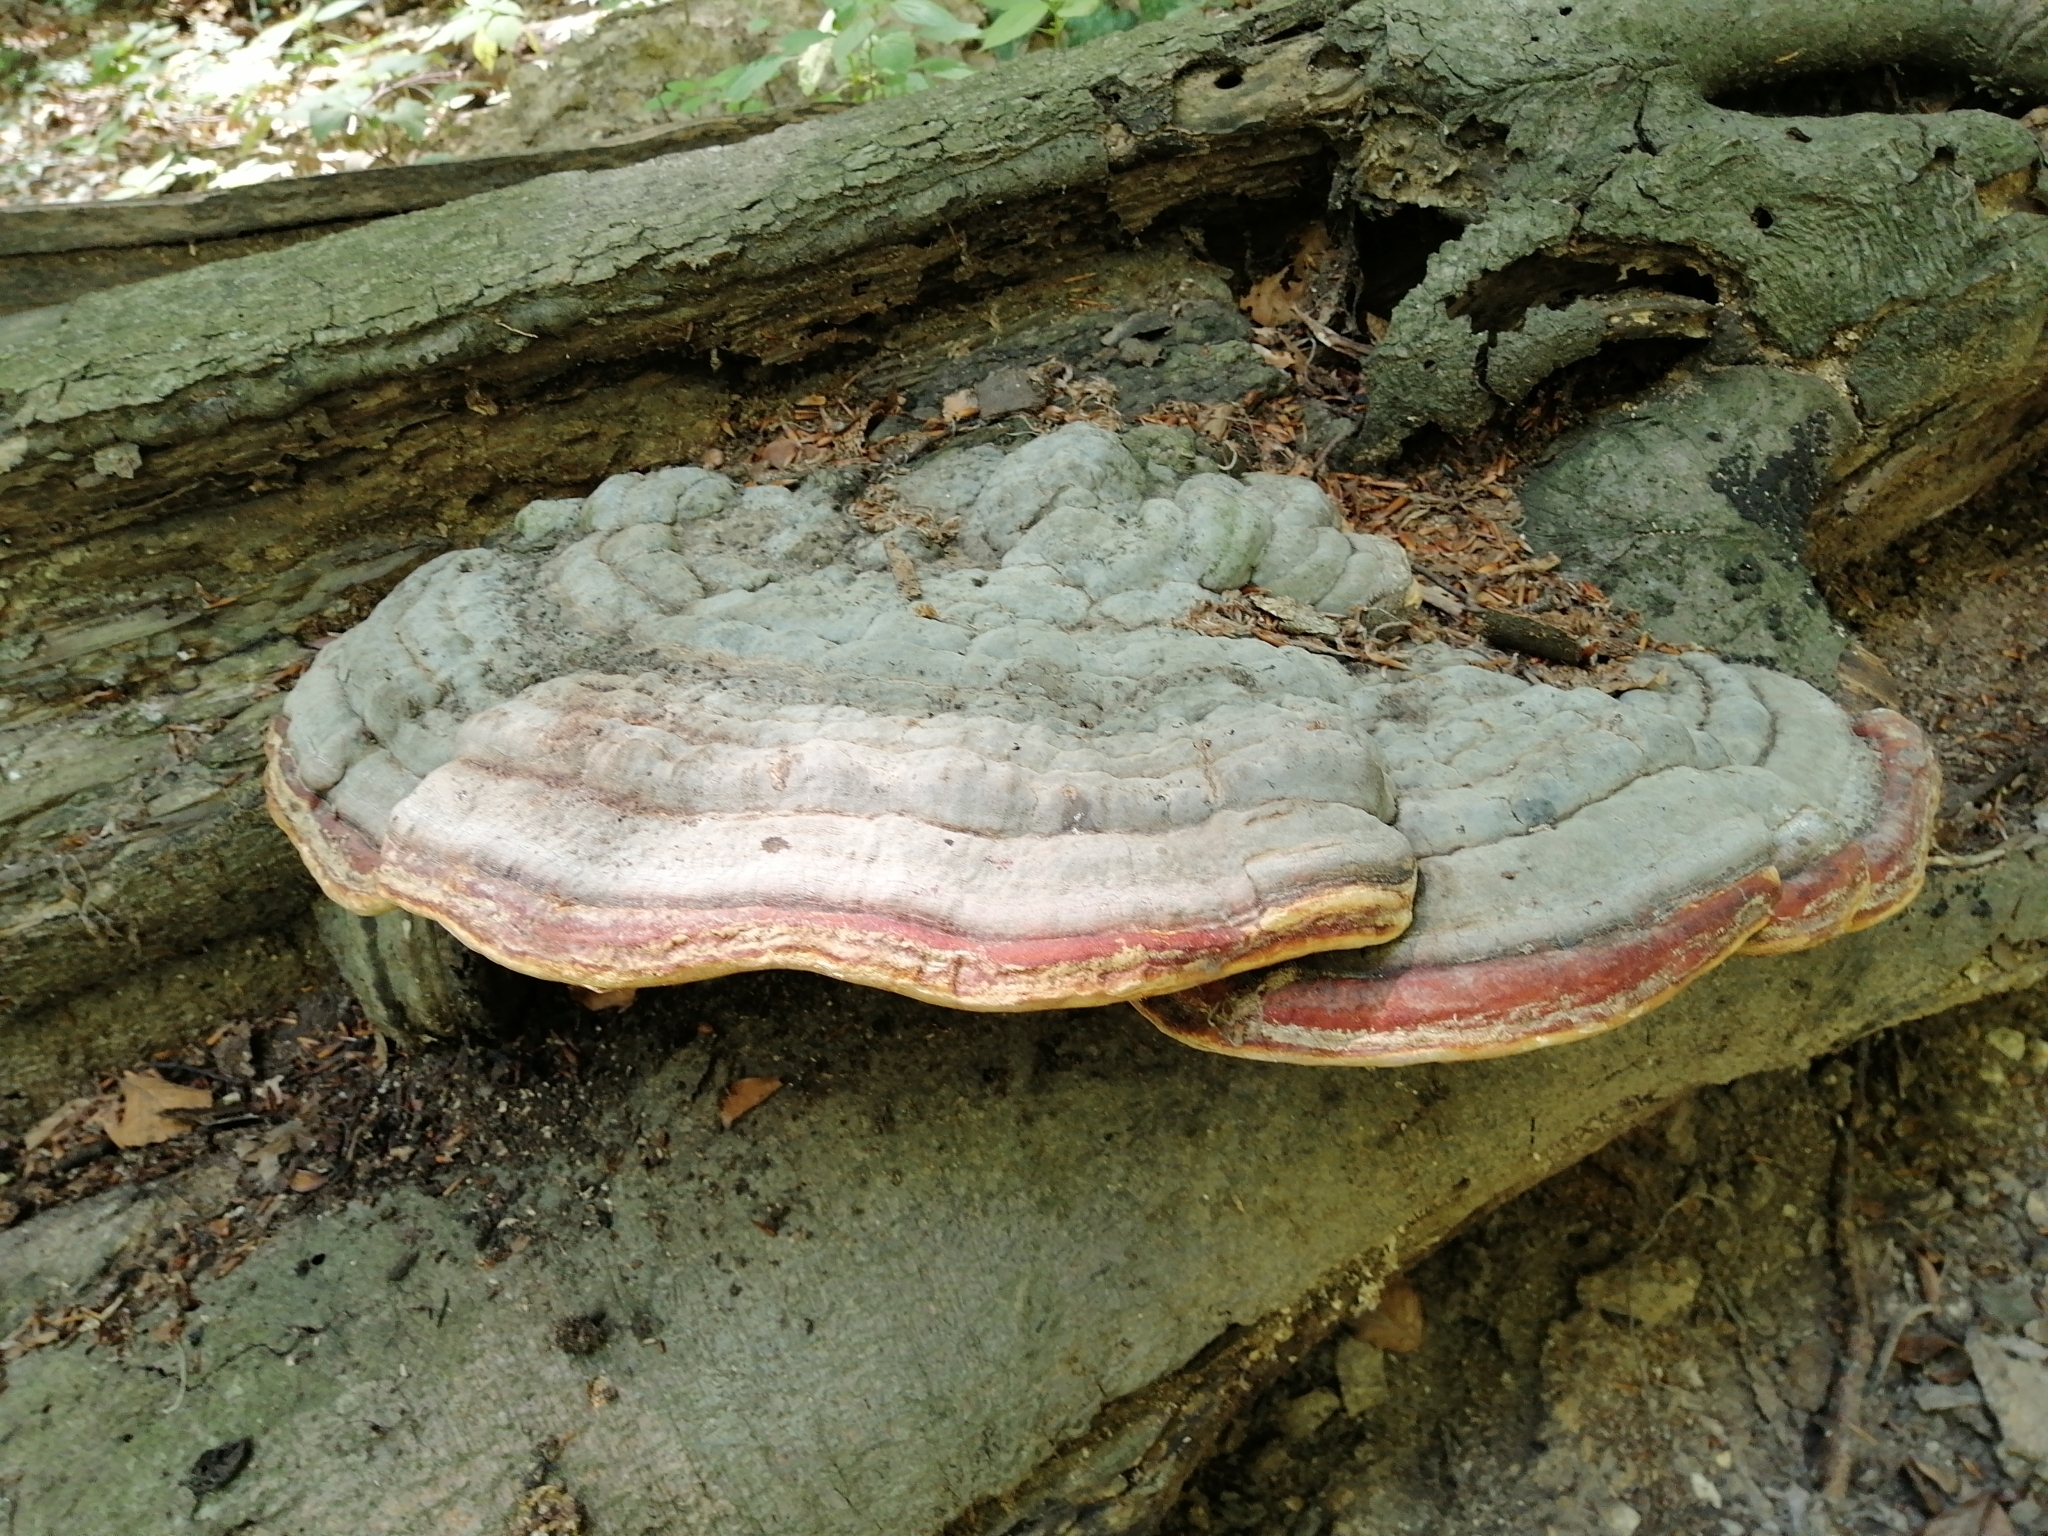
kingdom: Fungi
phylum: Basidiomycota
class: Agaricomycetes
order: Polyporales
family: Fomitopsidaceae
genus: Fomitopsis
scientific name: Fomitopsis pinicola
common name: Red-belted bracket
